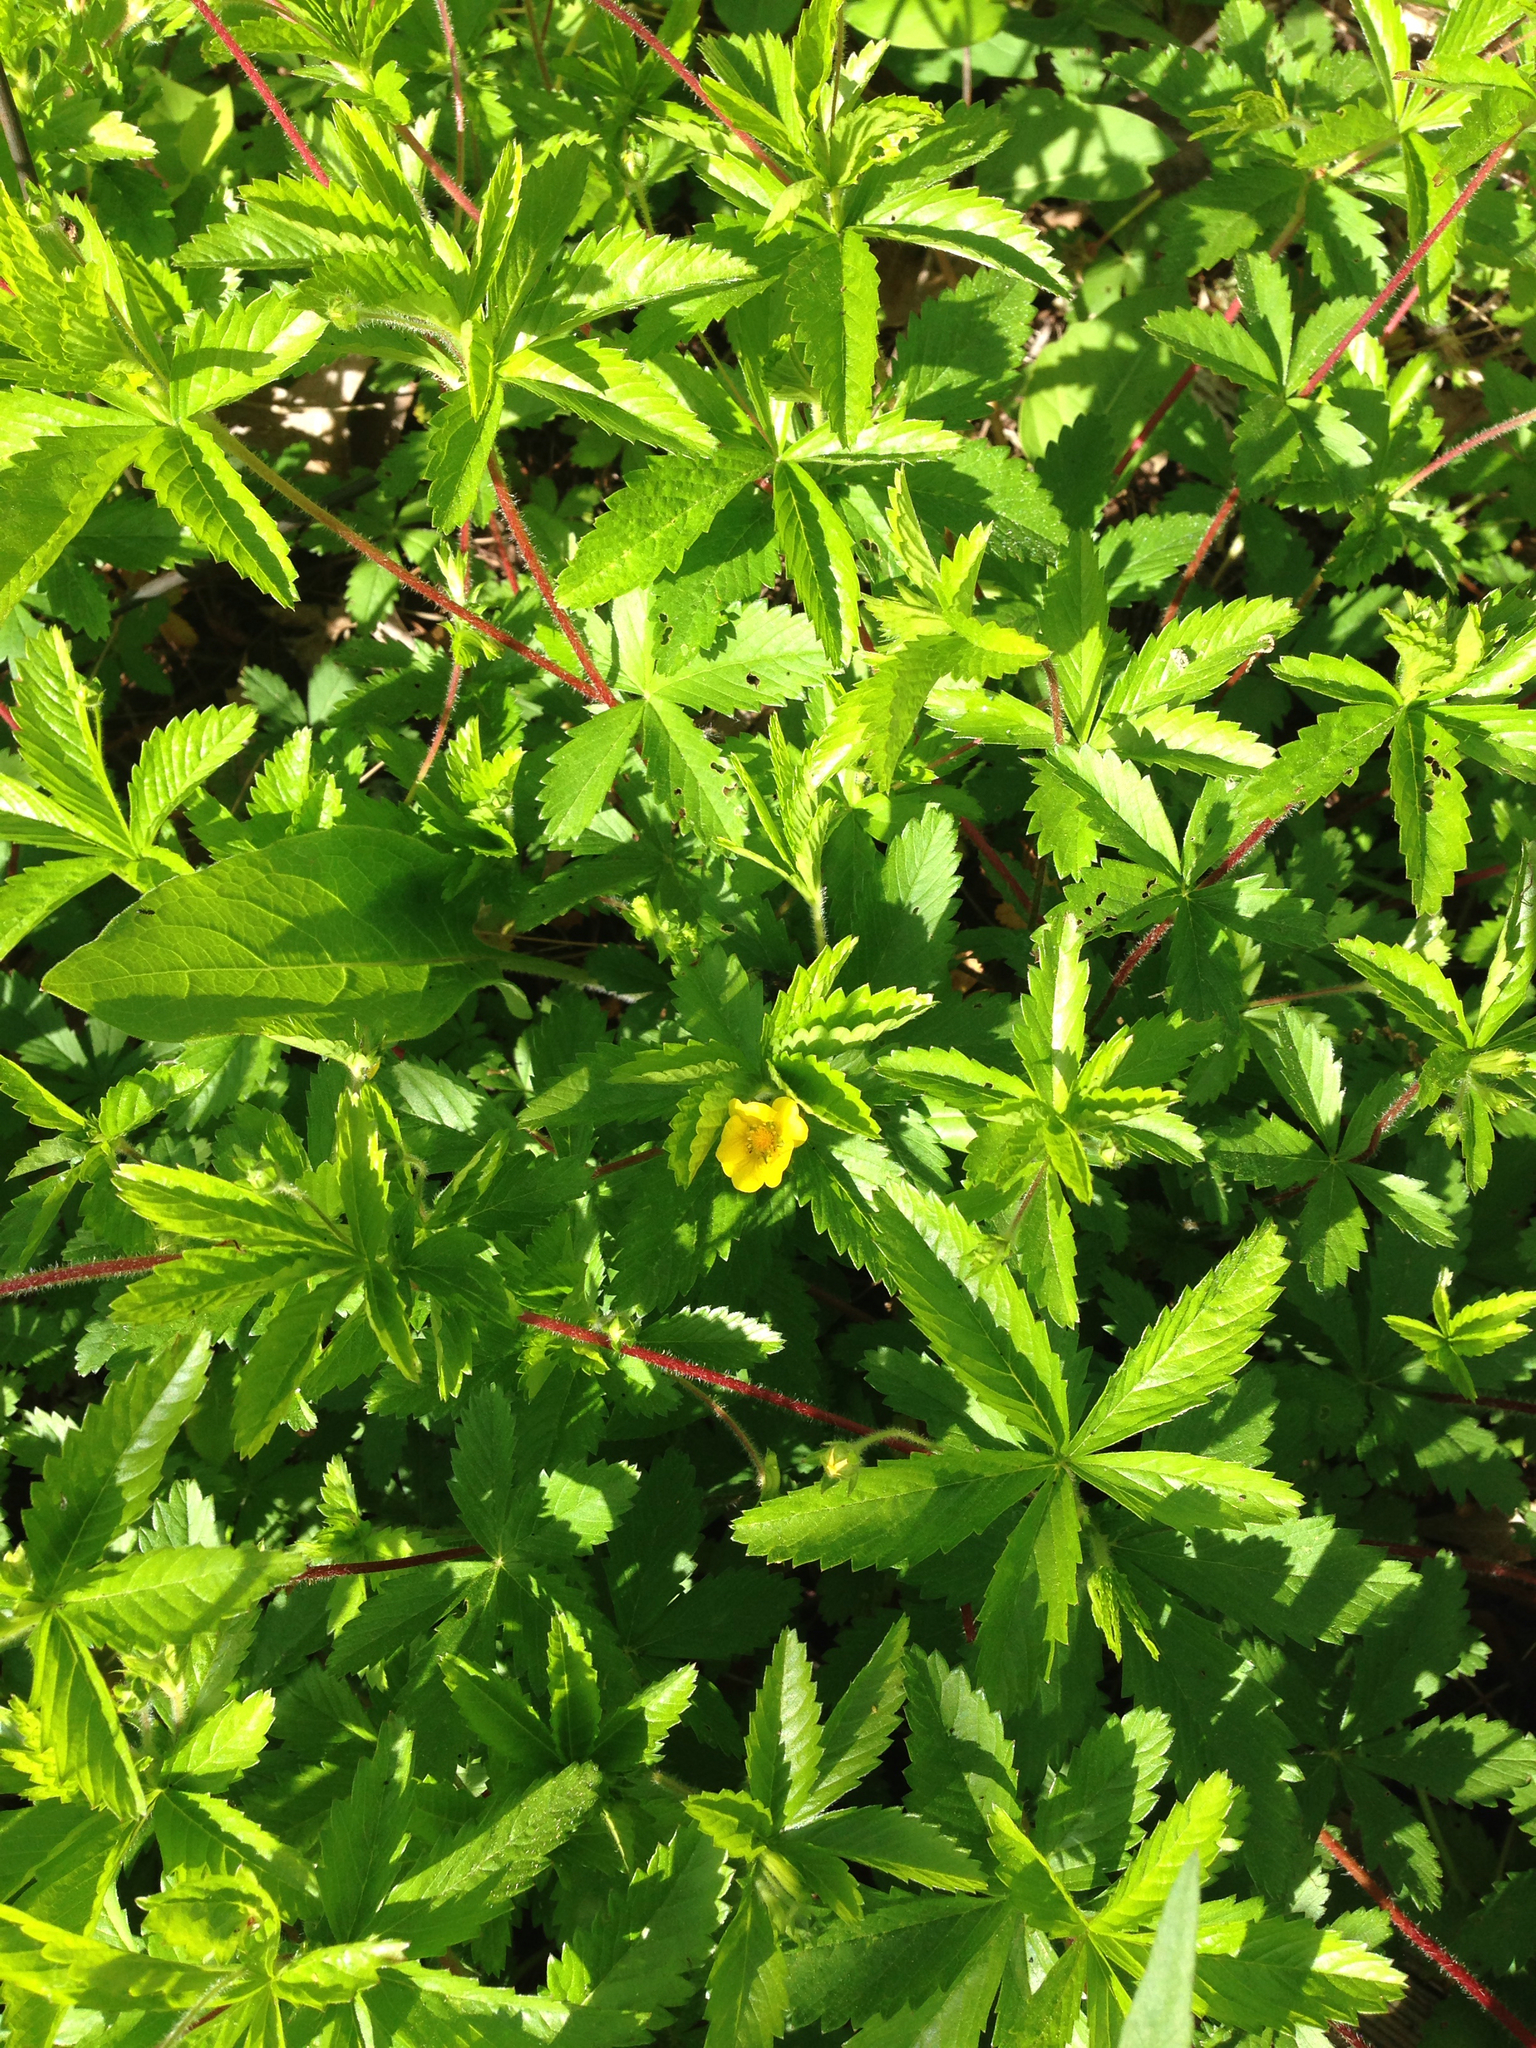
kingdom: Plantae
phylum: Tracheophyta
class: Magnoliopsida
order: Rosales
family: Rosaceae
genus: Potentilla
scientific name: Potentilla simplex
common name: Old field cinquefoil
